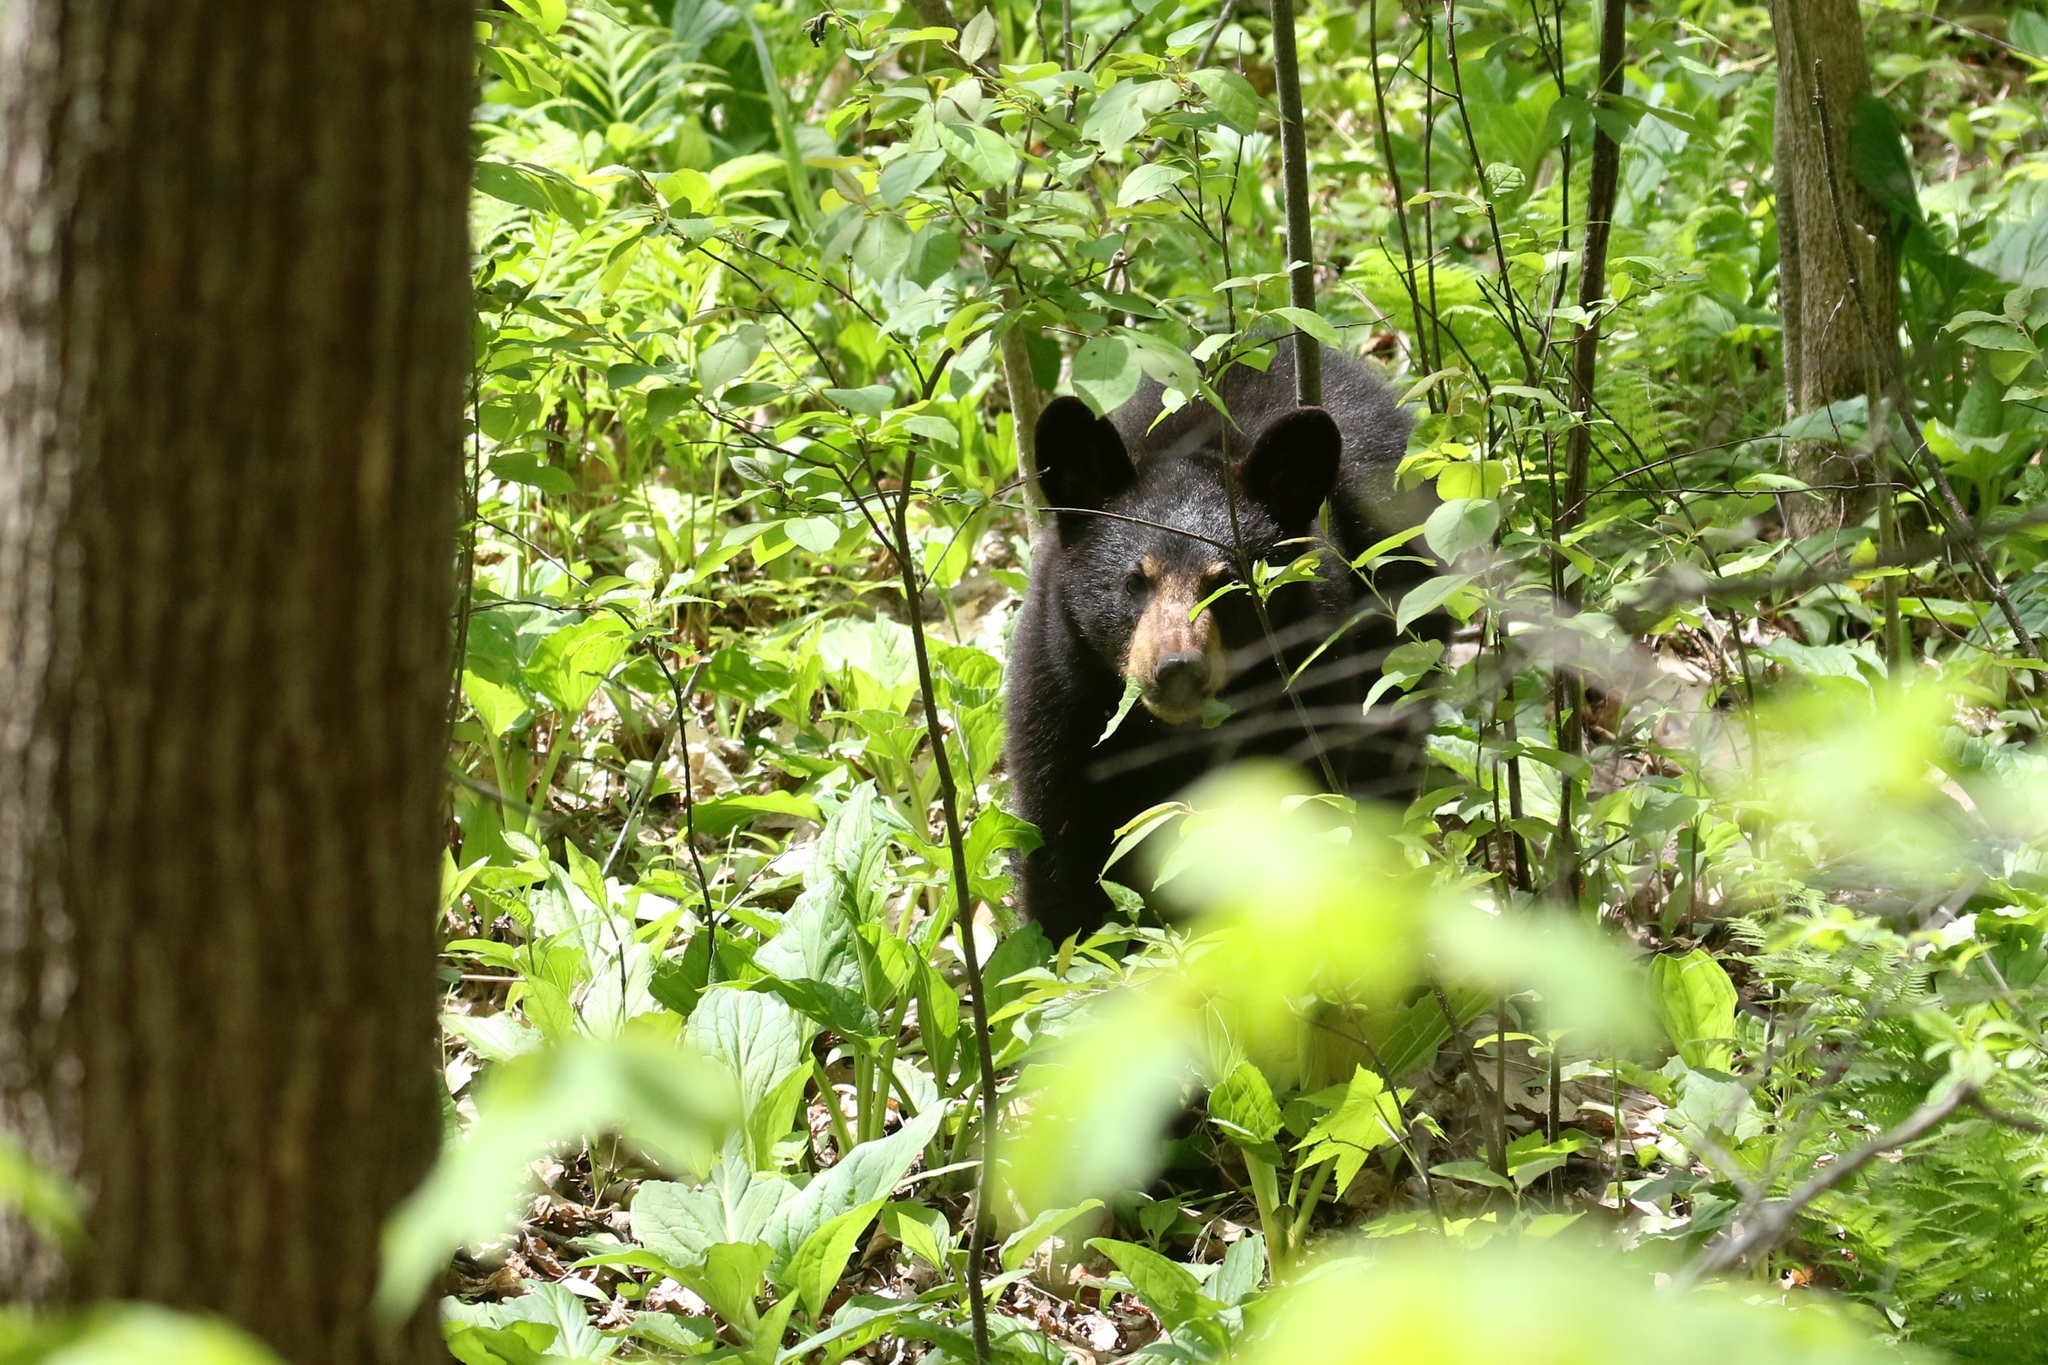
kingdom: Animalia
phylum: Chordata
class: Mammalia
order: Carnivora
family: Ursidae
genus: Ursus
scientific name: Ursus americanus
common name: American black bear
